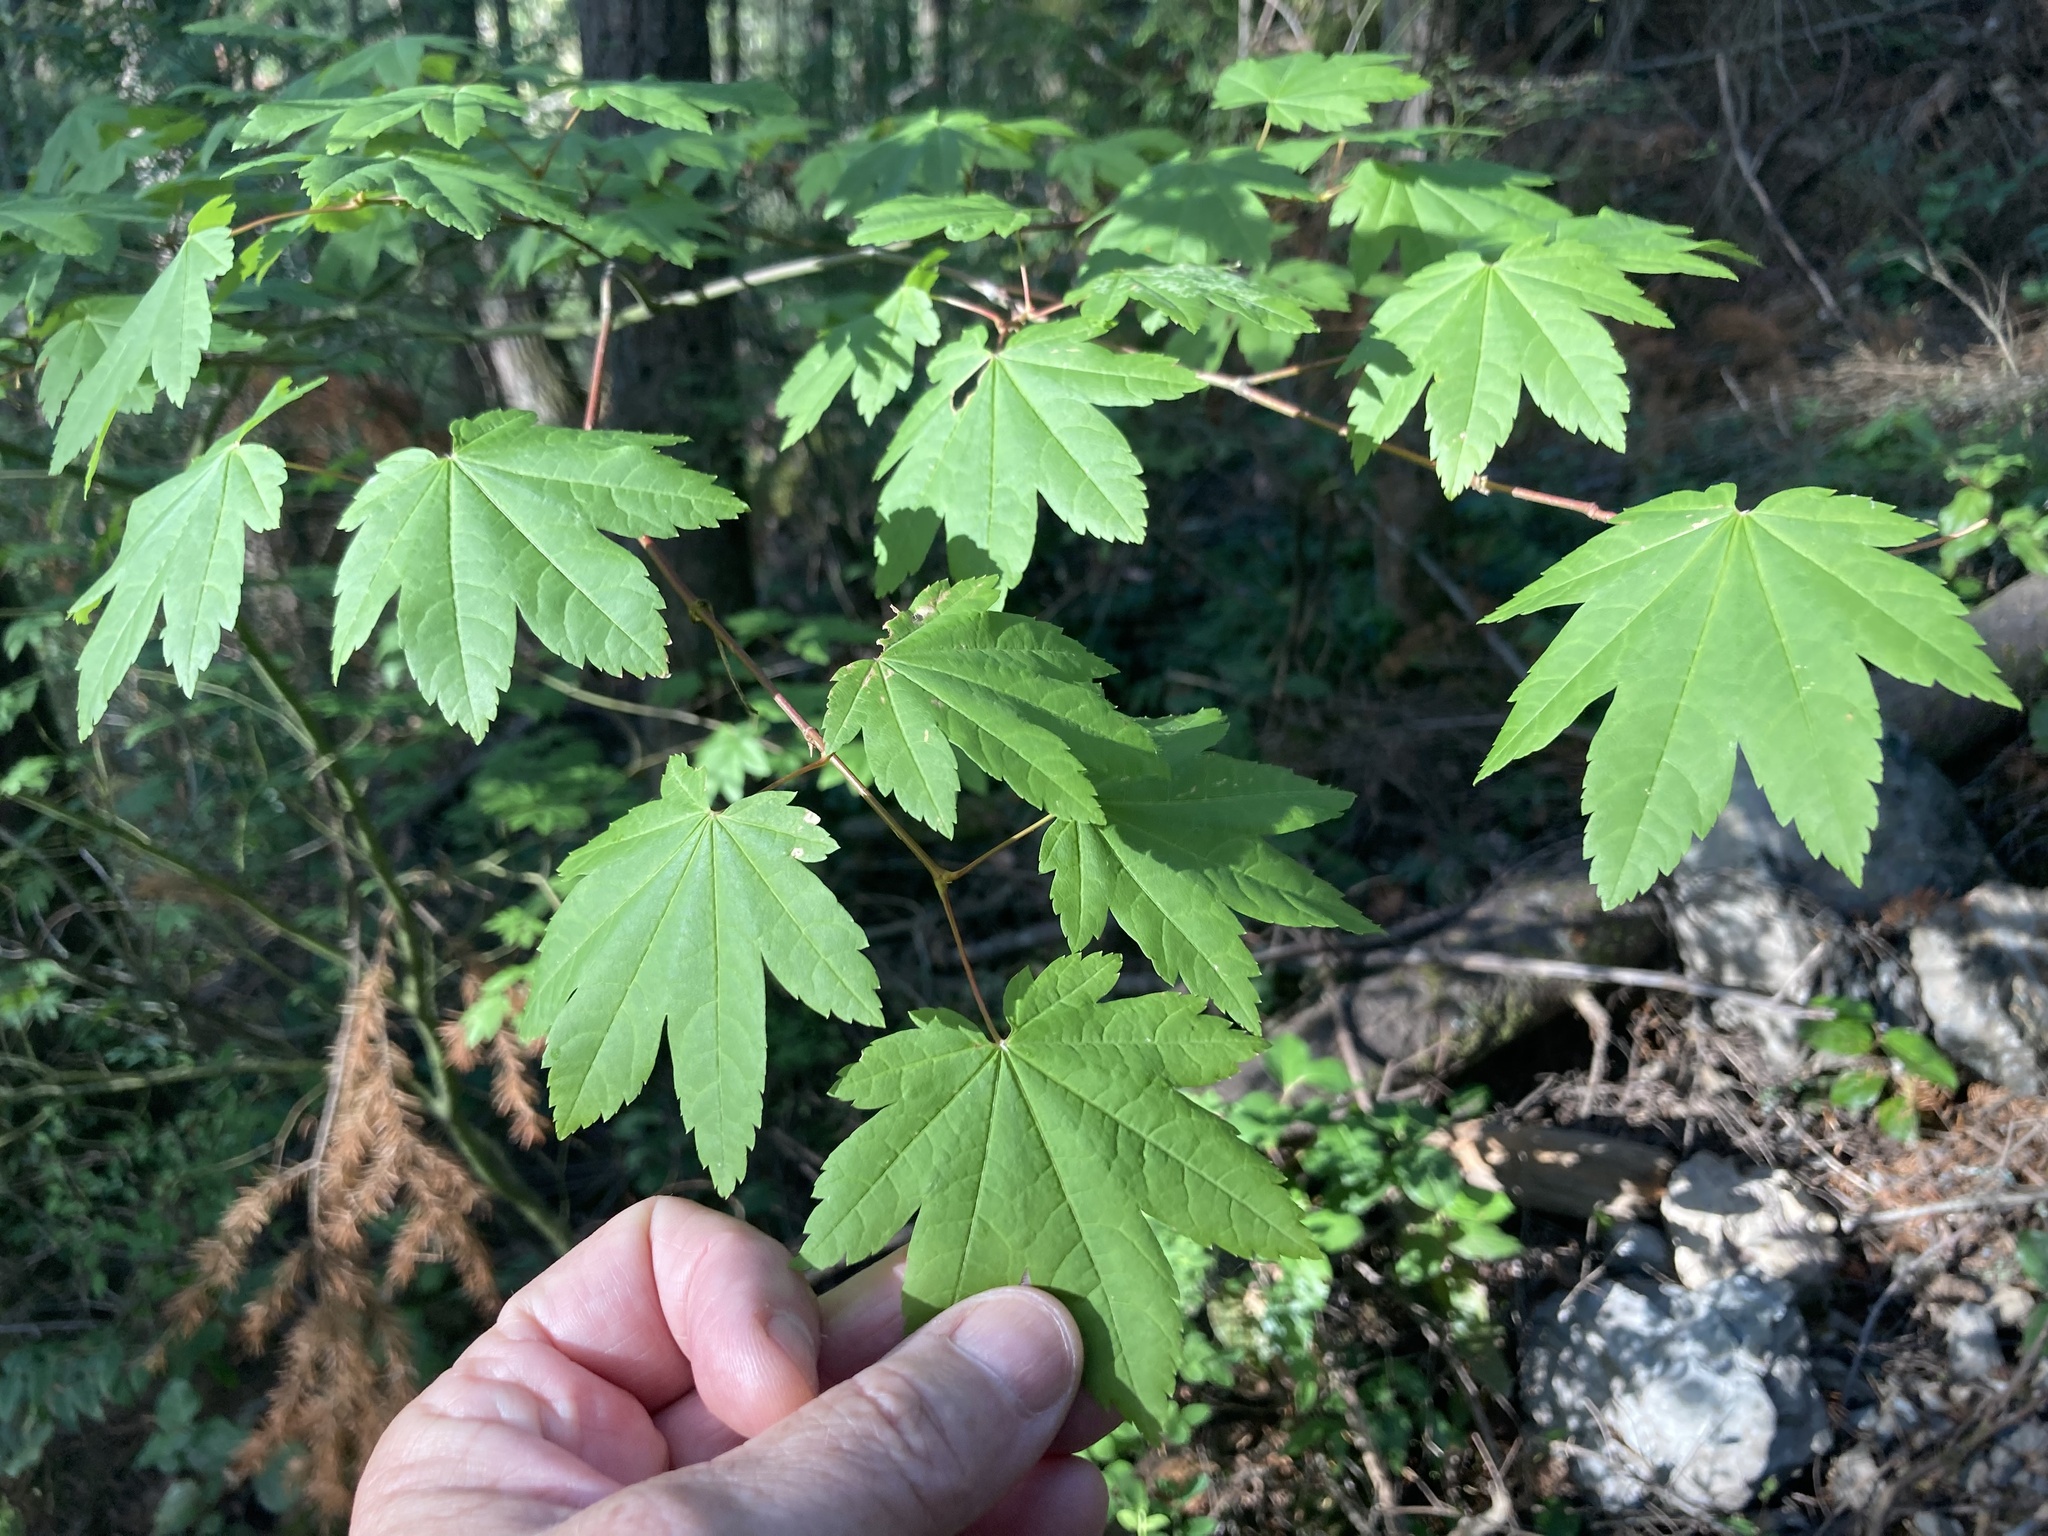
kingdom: Plantae
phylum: Tracheophyta
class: Magnoliopsida
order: Sapindales
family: Sapindaceae
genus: Acer
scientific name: Acer circinatum
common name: Vine maple
